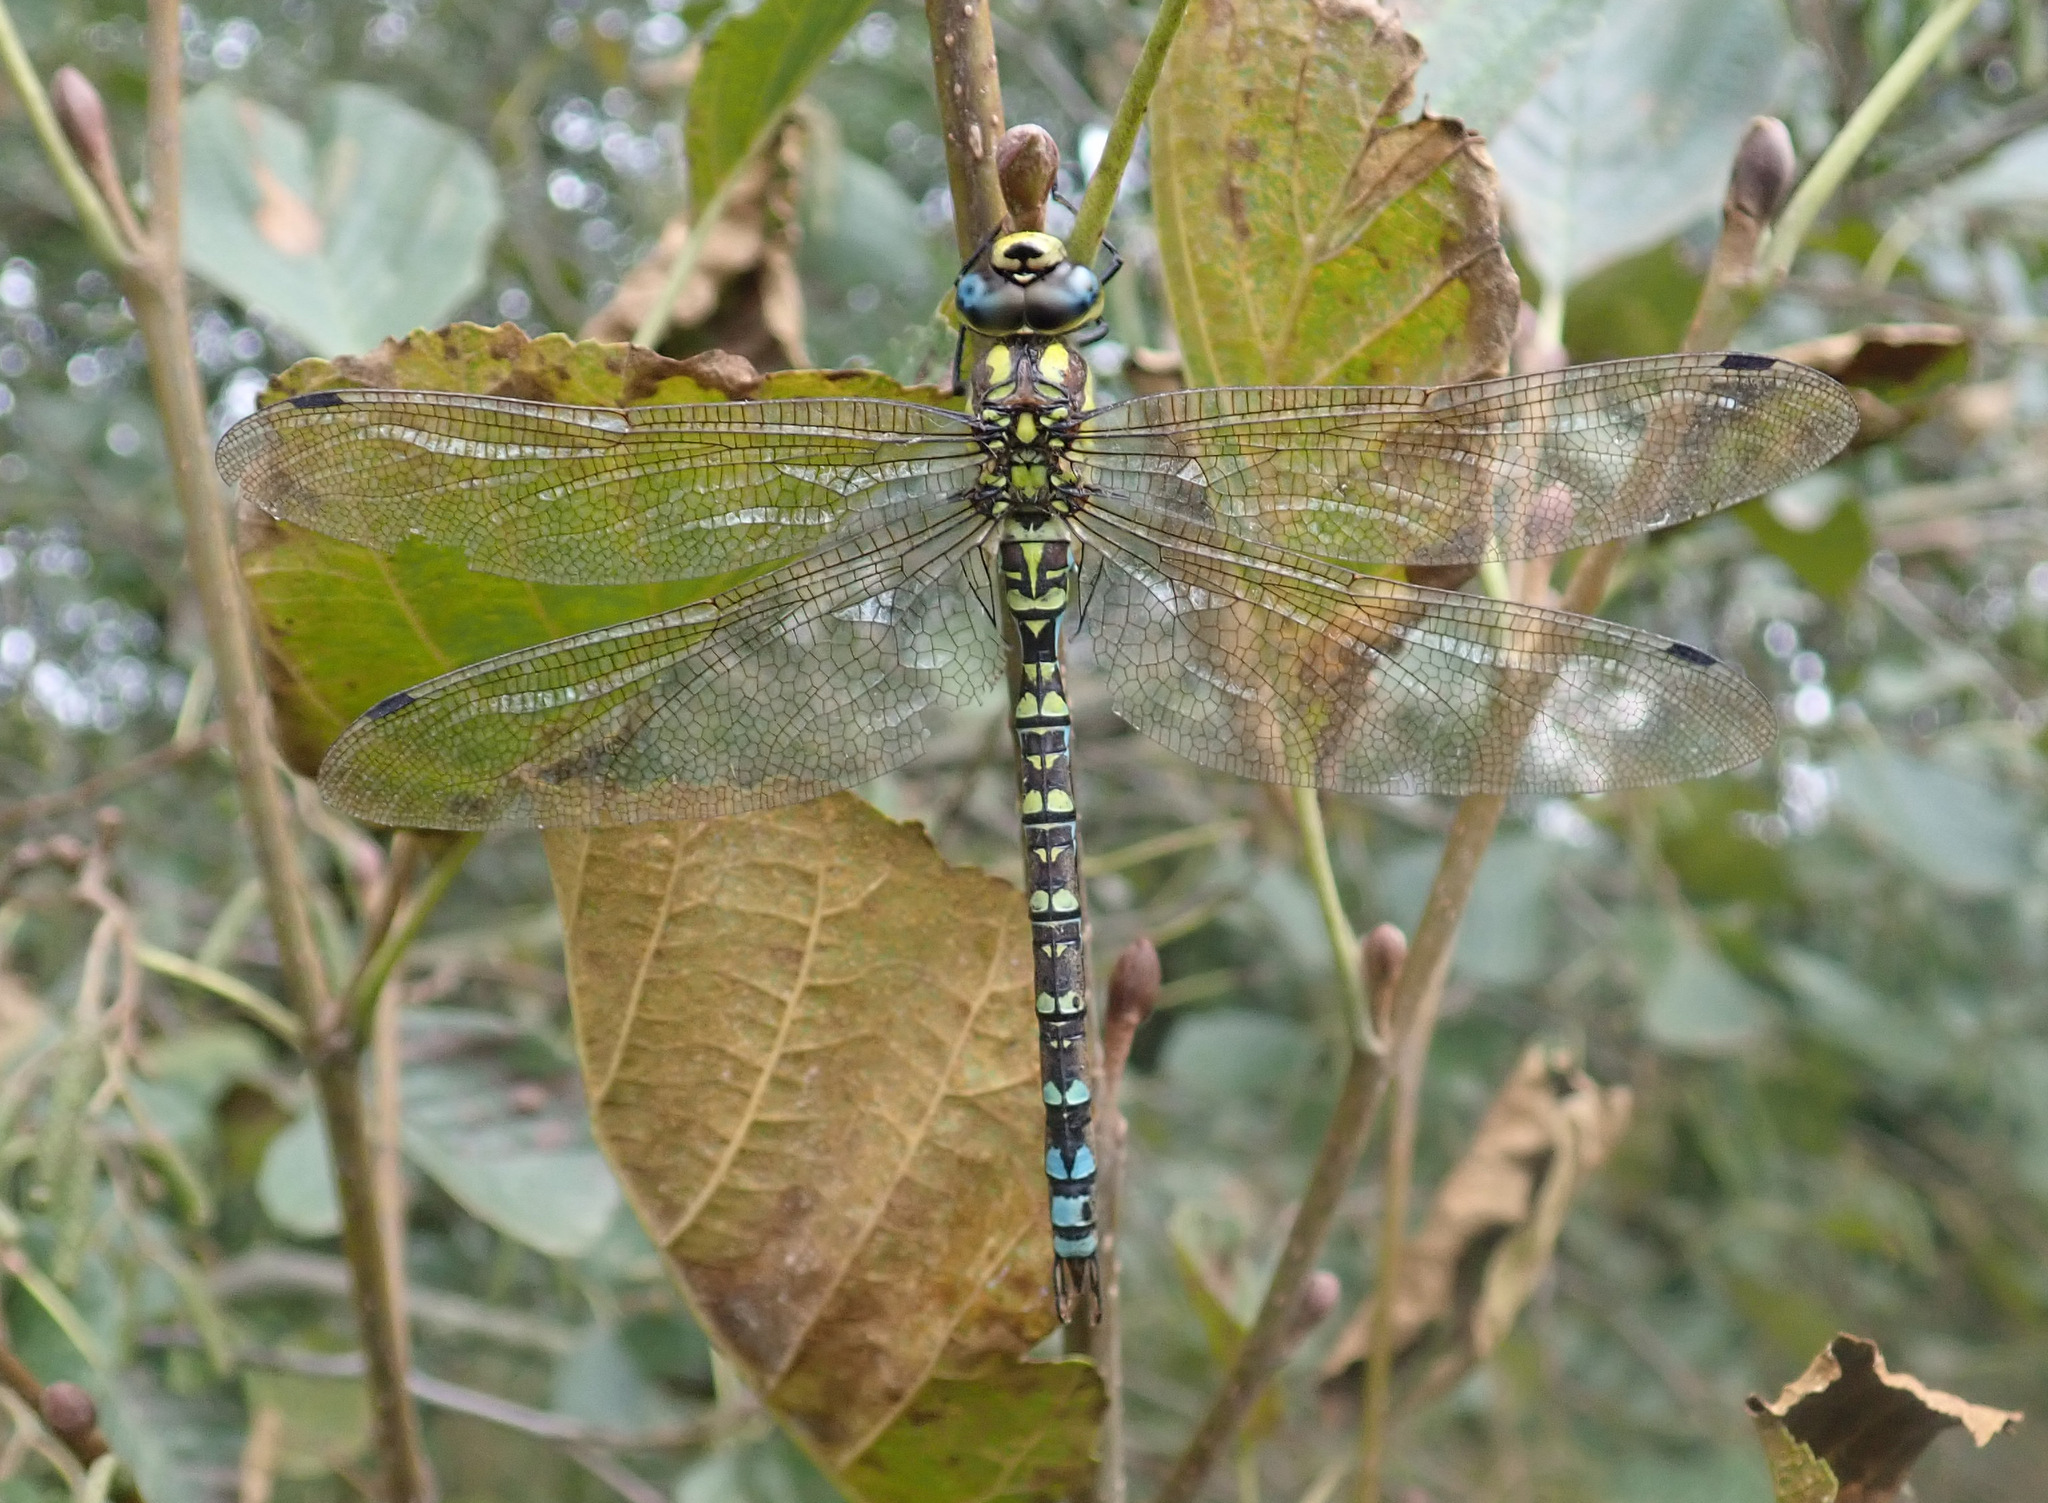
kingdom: Animalia
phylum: Arthropoda
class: Insecta
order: Odonata
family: Aeshnidae
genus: Aeshna
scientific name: Aeshna cyanea
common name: Southern hawker
